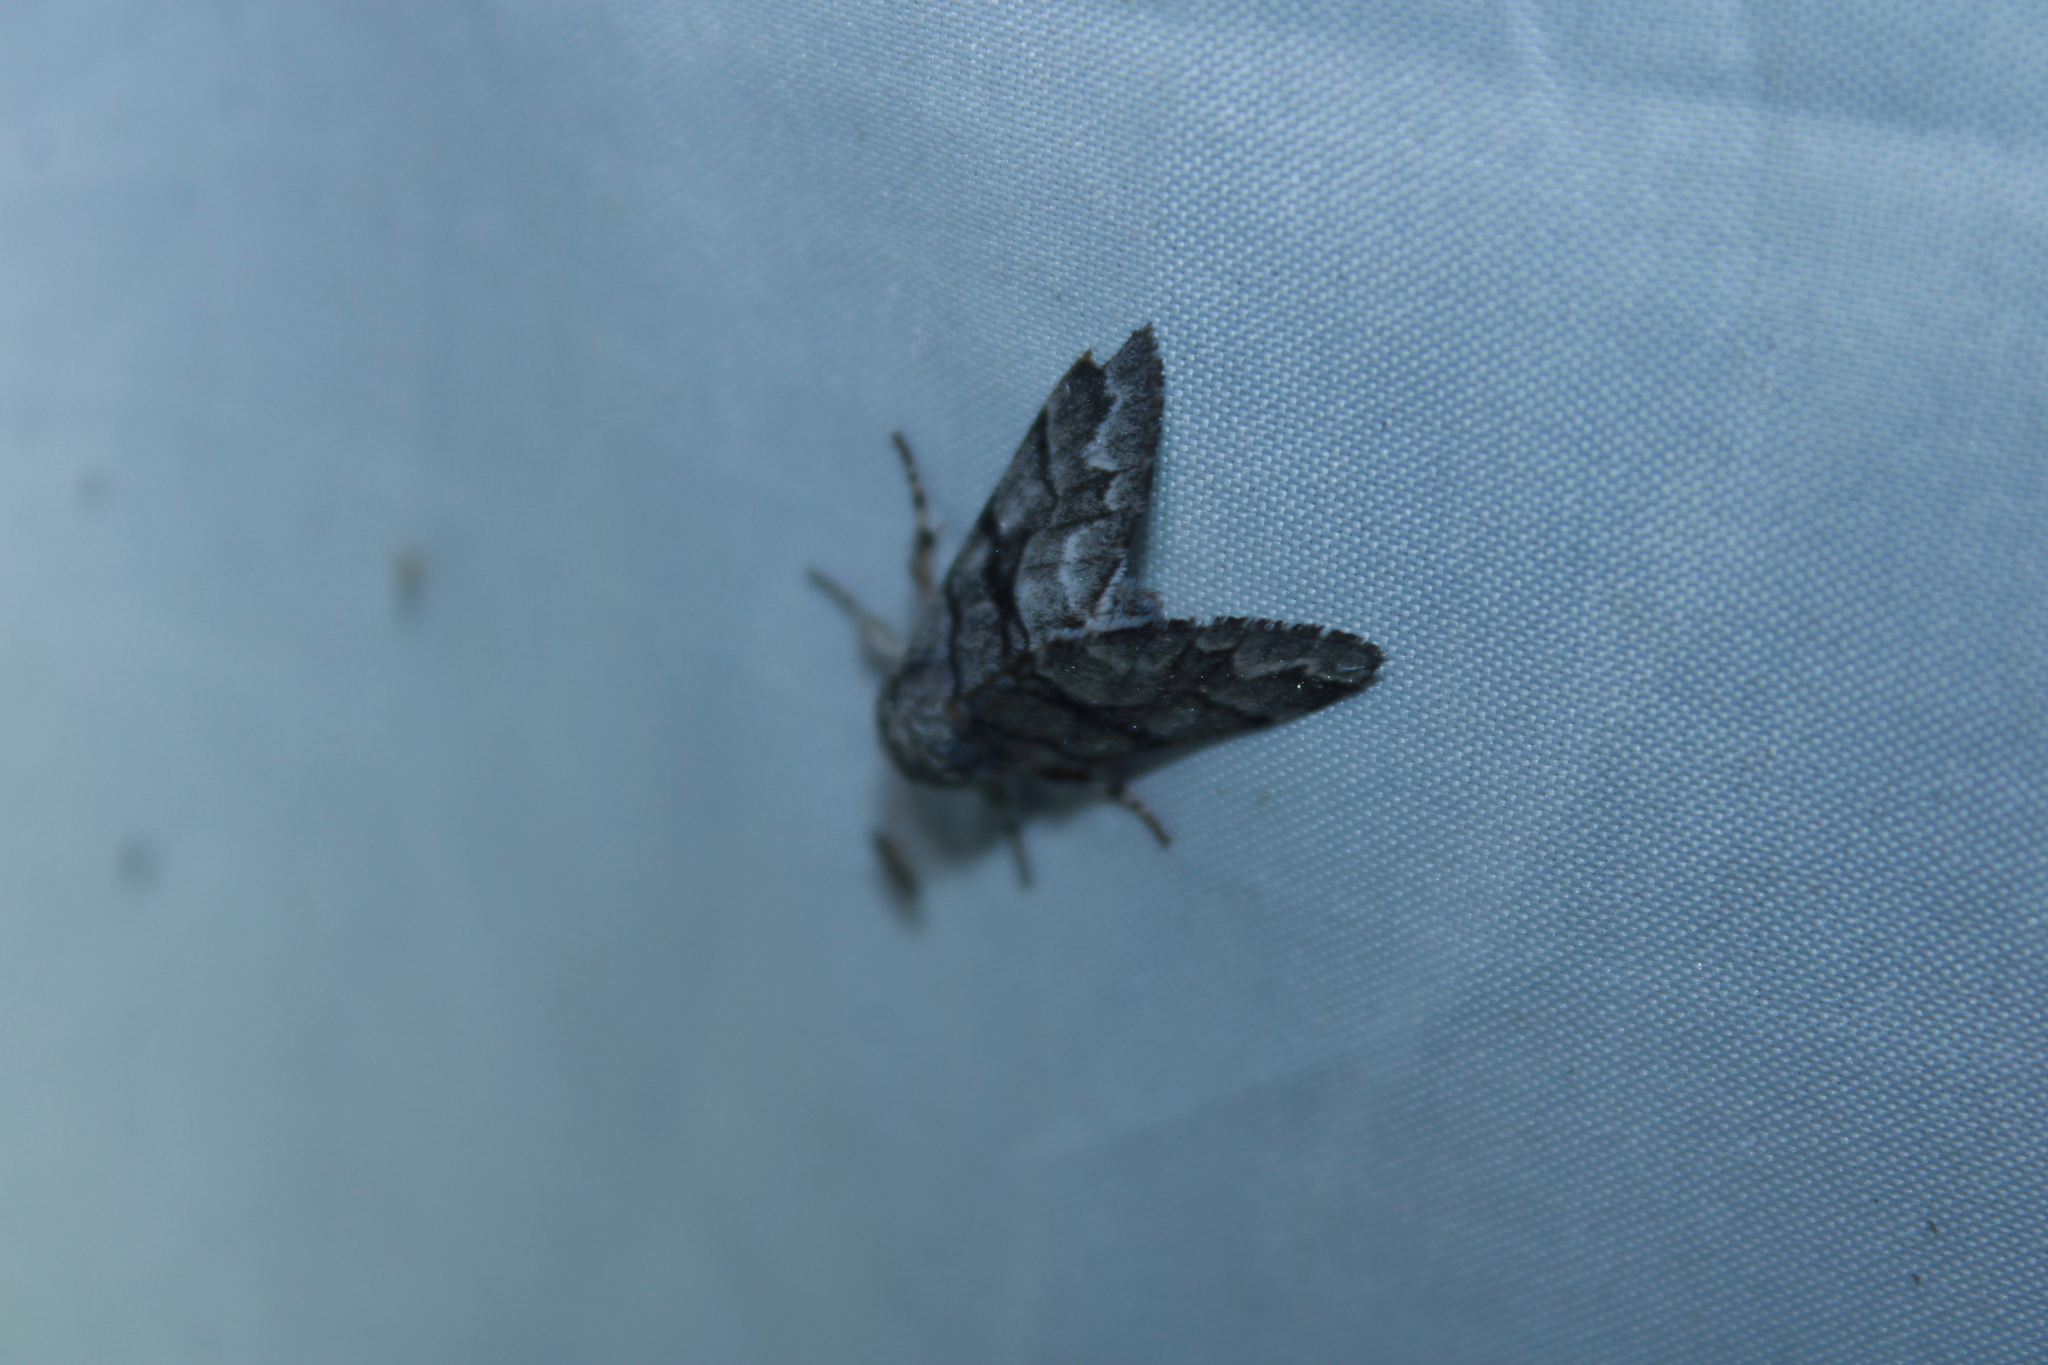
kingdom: Animalia
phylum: Arthropoda
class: Insecta
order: Lepidoptera
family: Noctuidae
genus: Panthea
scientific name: Panthea furcilla
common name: Eastern panthea moth
